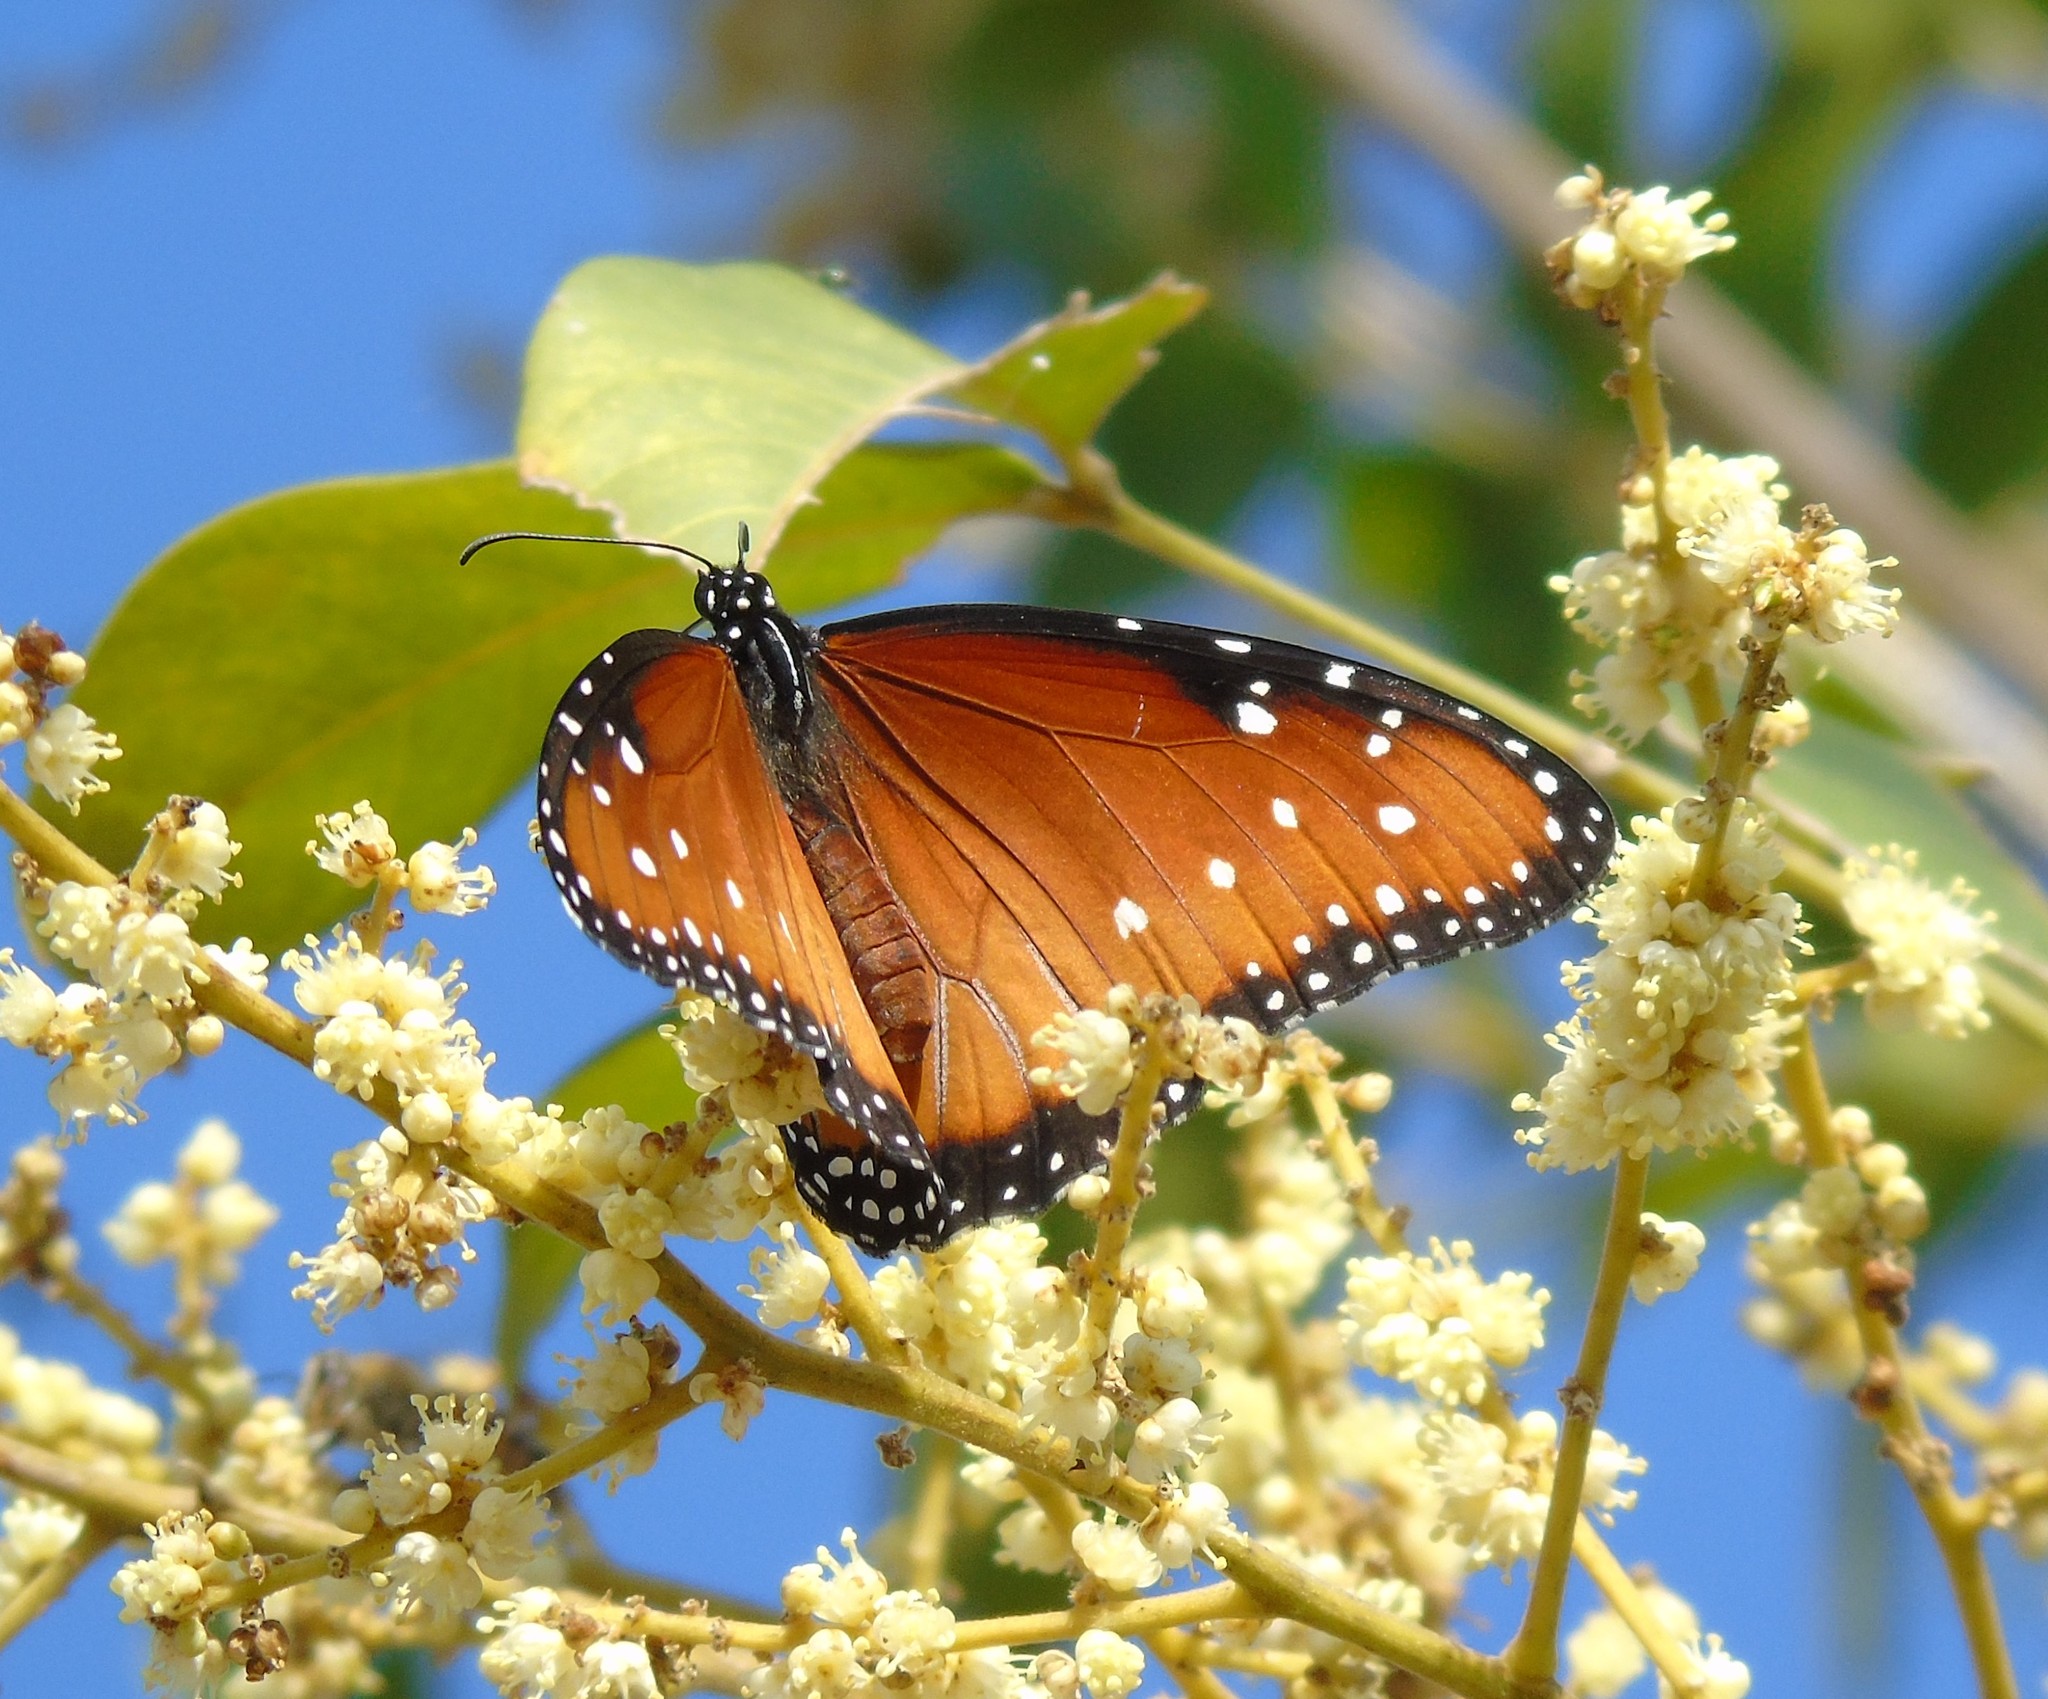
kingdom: Animalia
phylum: Arthropoda
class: Insecta
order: Lepidoptera
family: Nymphalidae
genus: Danaus
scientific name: Danaus gilippus
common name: Queen
